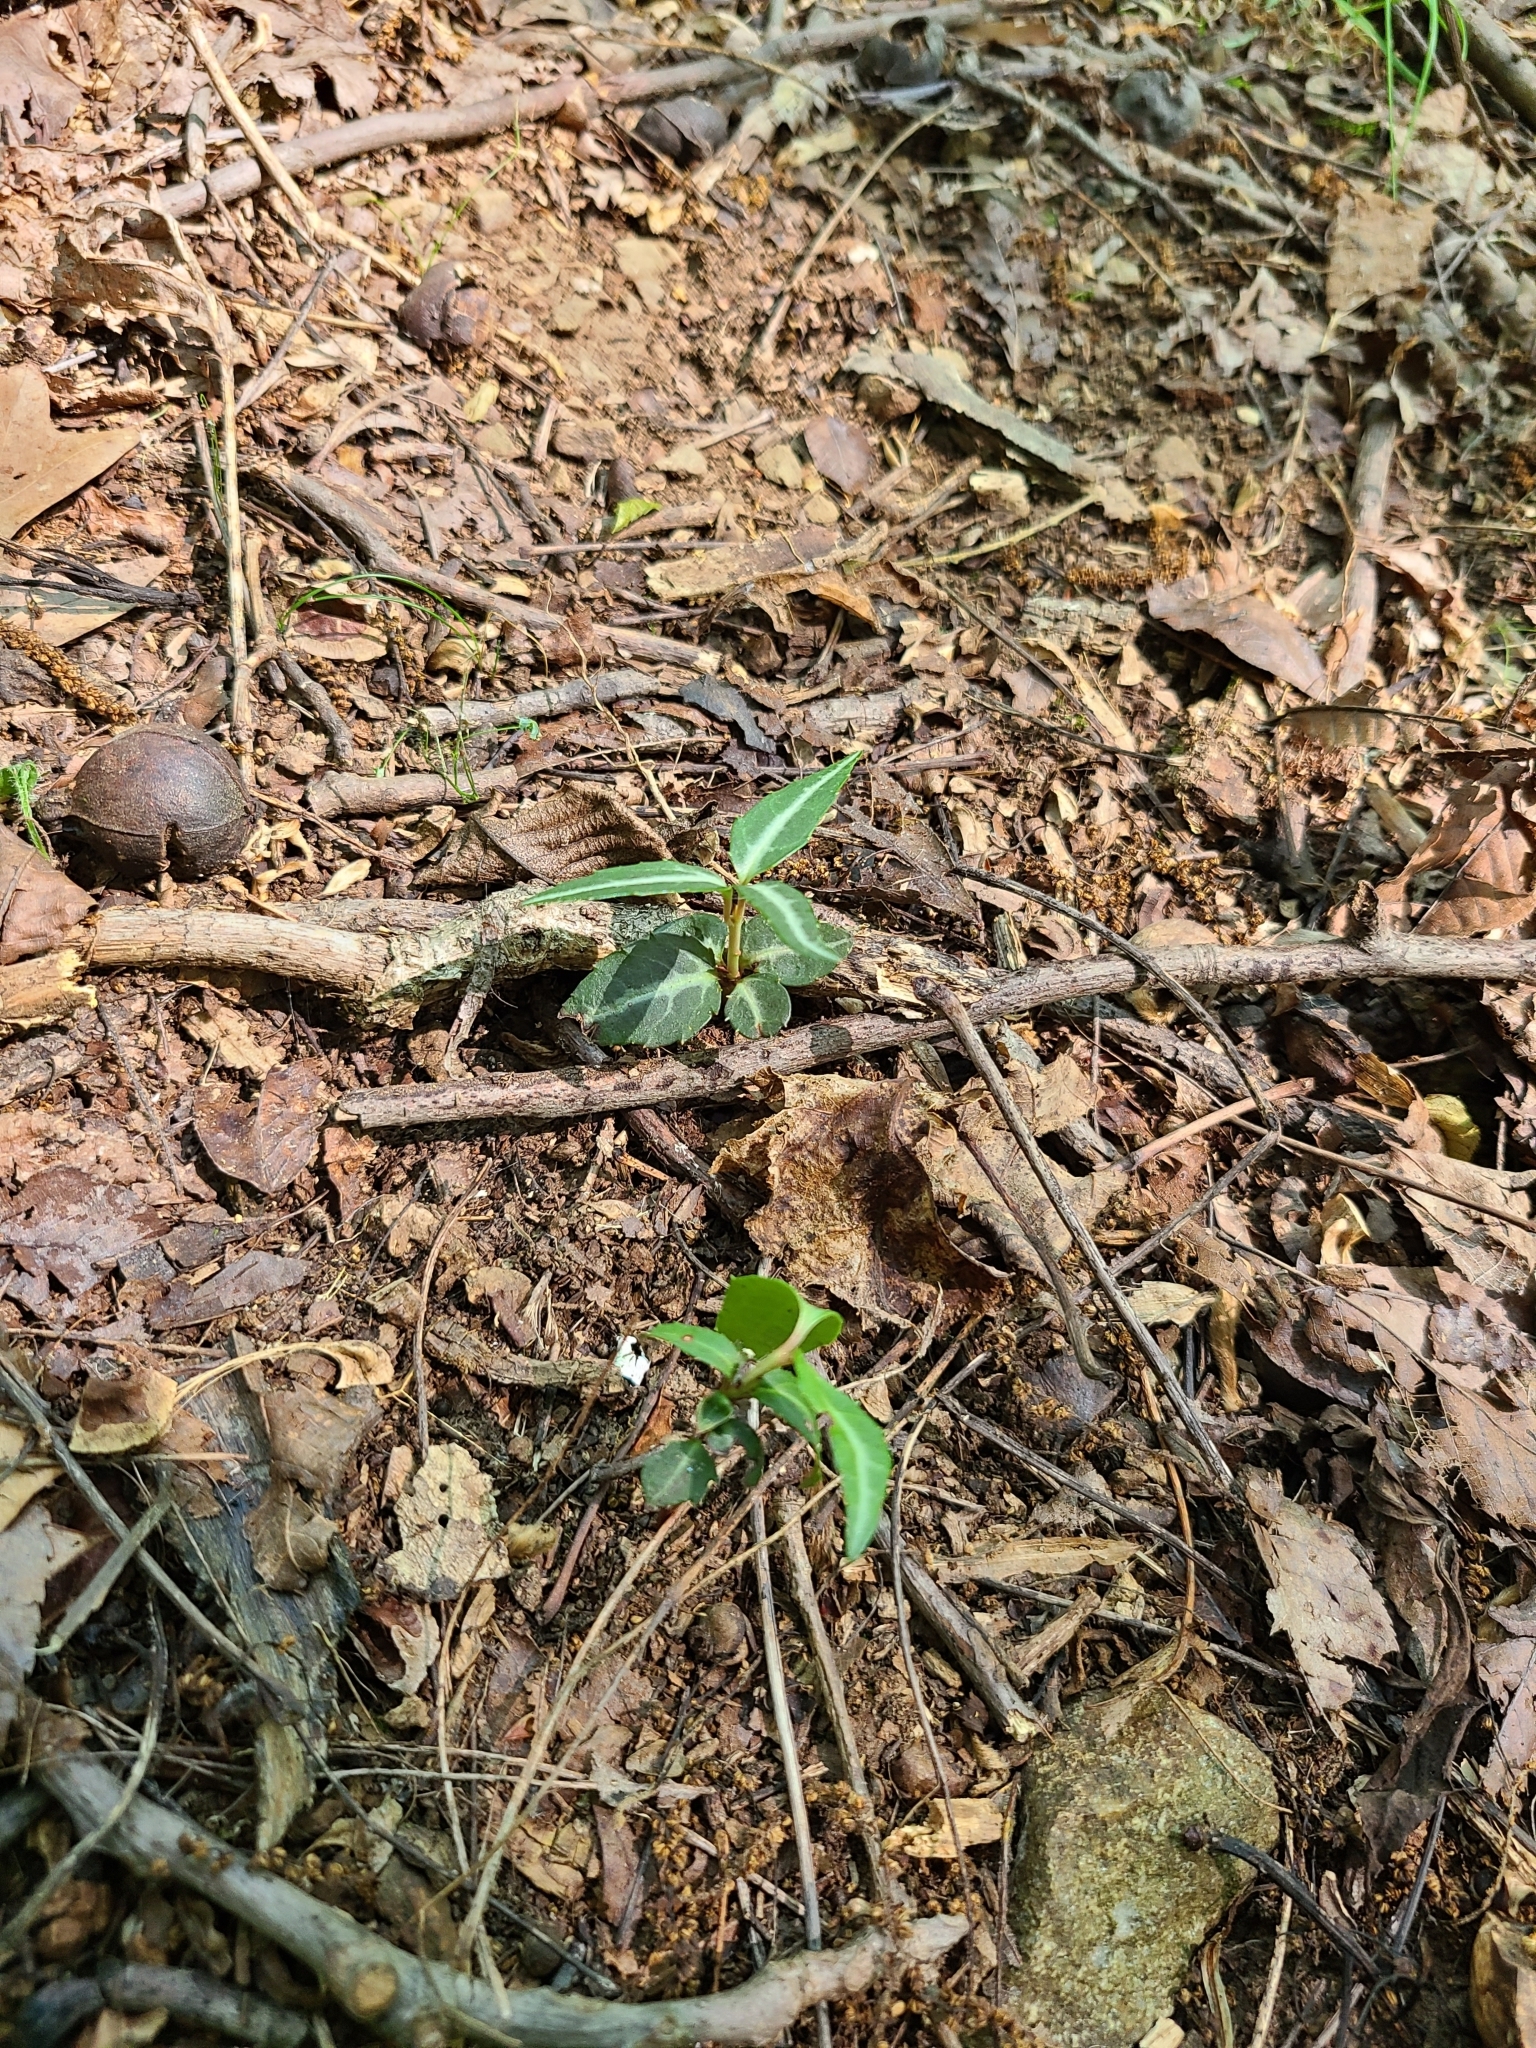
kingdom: Plantae
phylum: Tracheophyta
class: Magnoliopsida
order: Ericales
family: Ericaceae
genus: Chimaphila
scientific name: Chimaphila maculata
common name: Spotted pipsissewa
